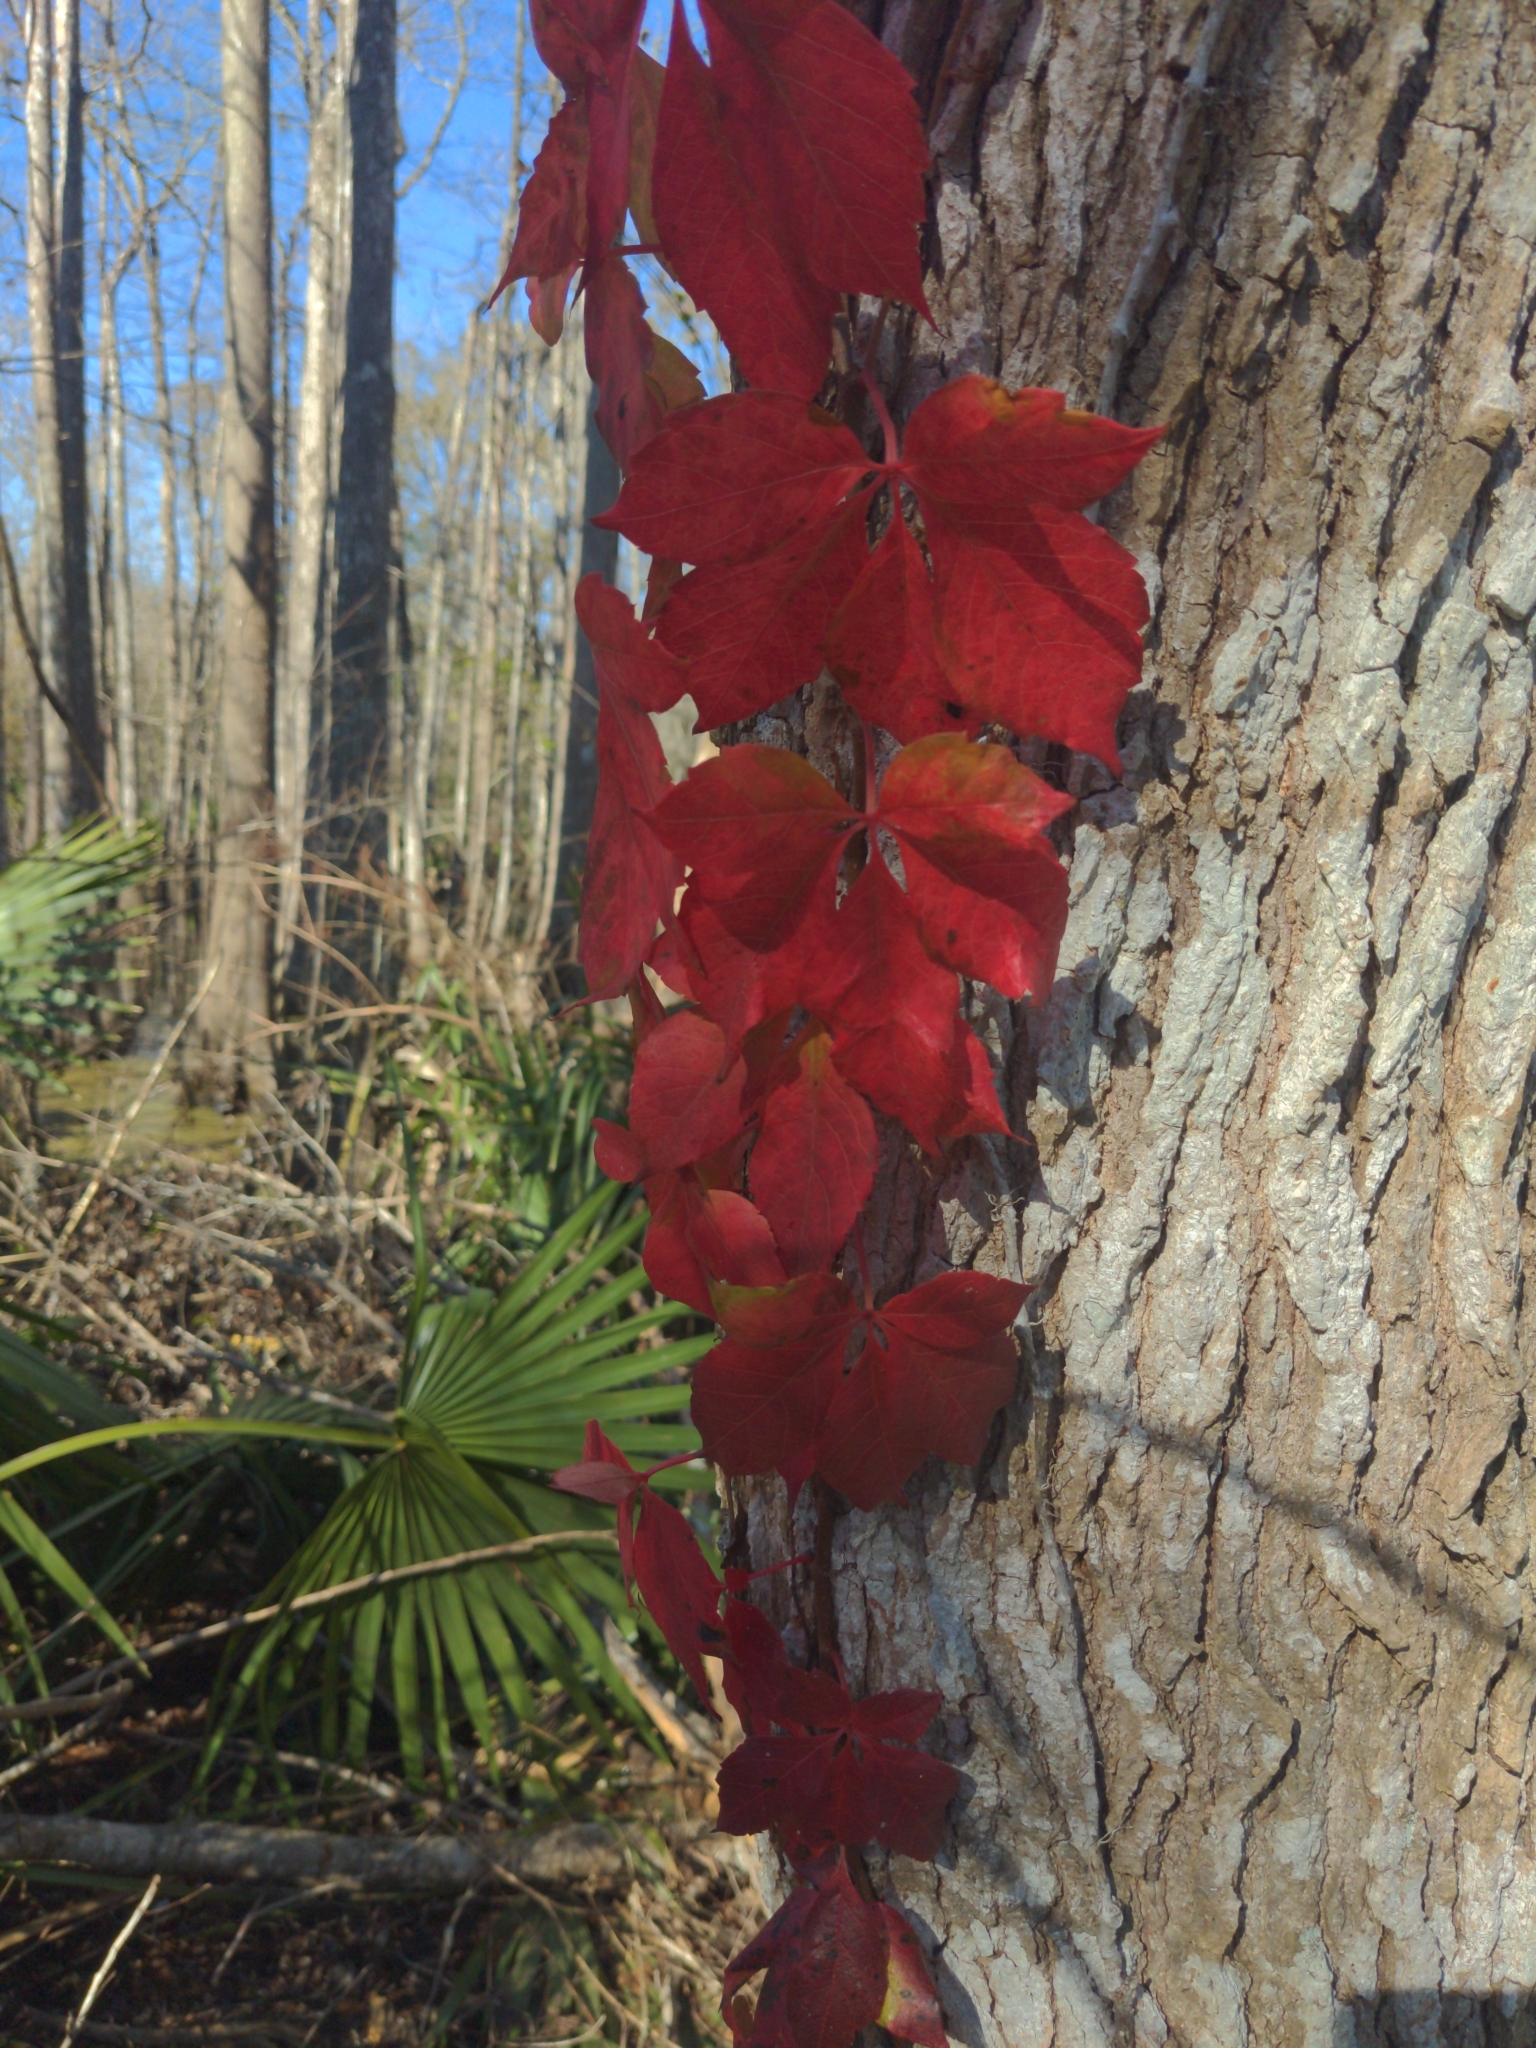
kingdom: Plantae
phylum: Tracheophyta
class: Magnoliopsida
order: Vitales
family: Vitaceae
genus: Parthenocissus
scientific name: Parthenocissus quinquefolia
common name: Virginia-creeper
